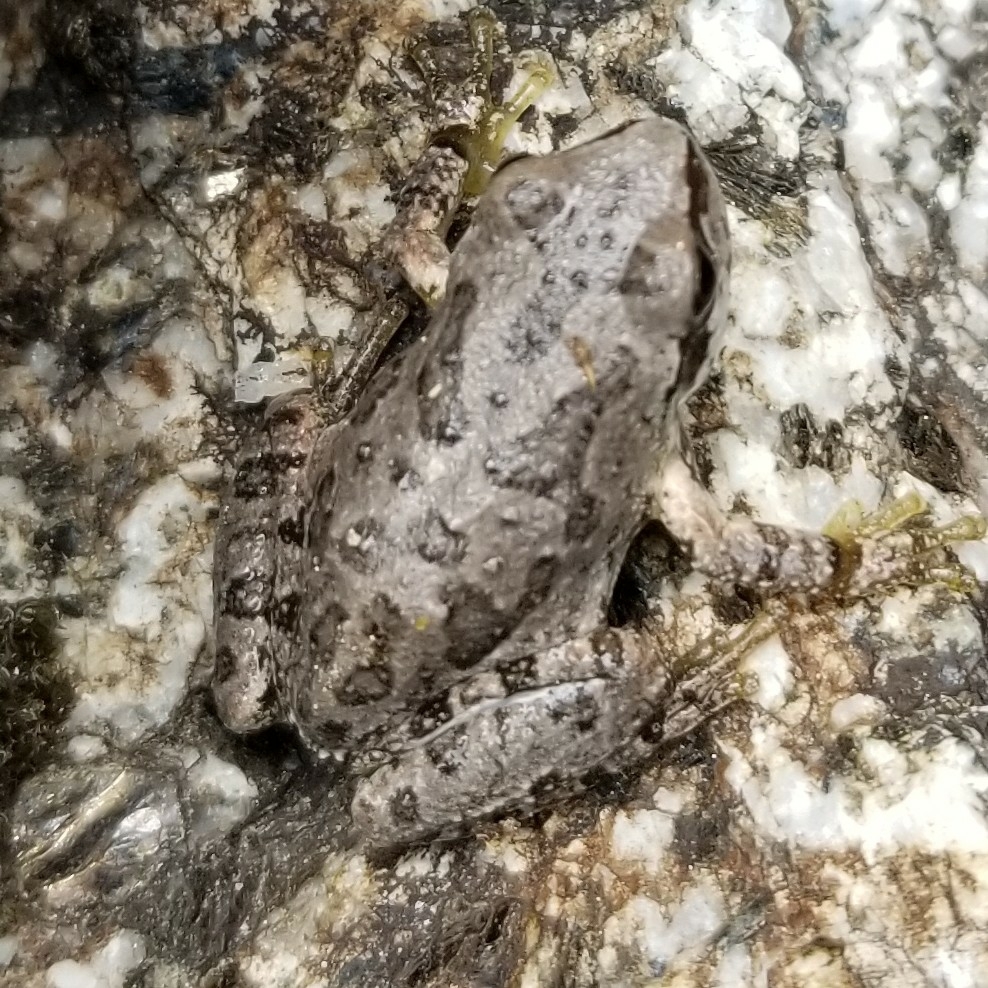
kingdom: Animalia
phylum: Chordata
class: Amphibia
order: Anura
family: Hylidae
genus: Pseudacris
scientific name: Pseudacris regilla
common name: Pacific chorus frog
